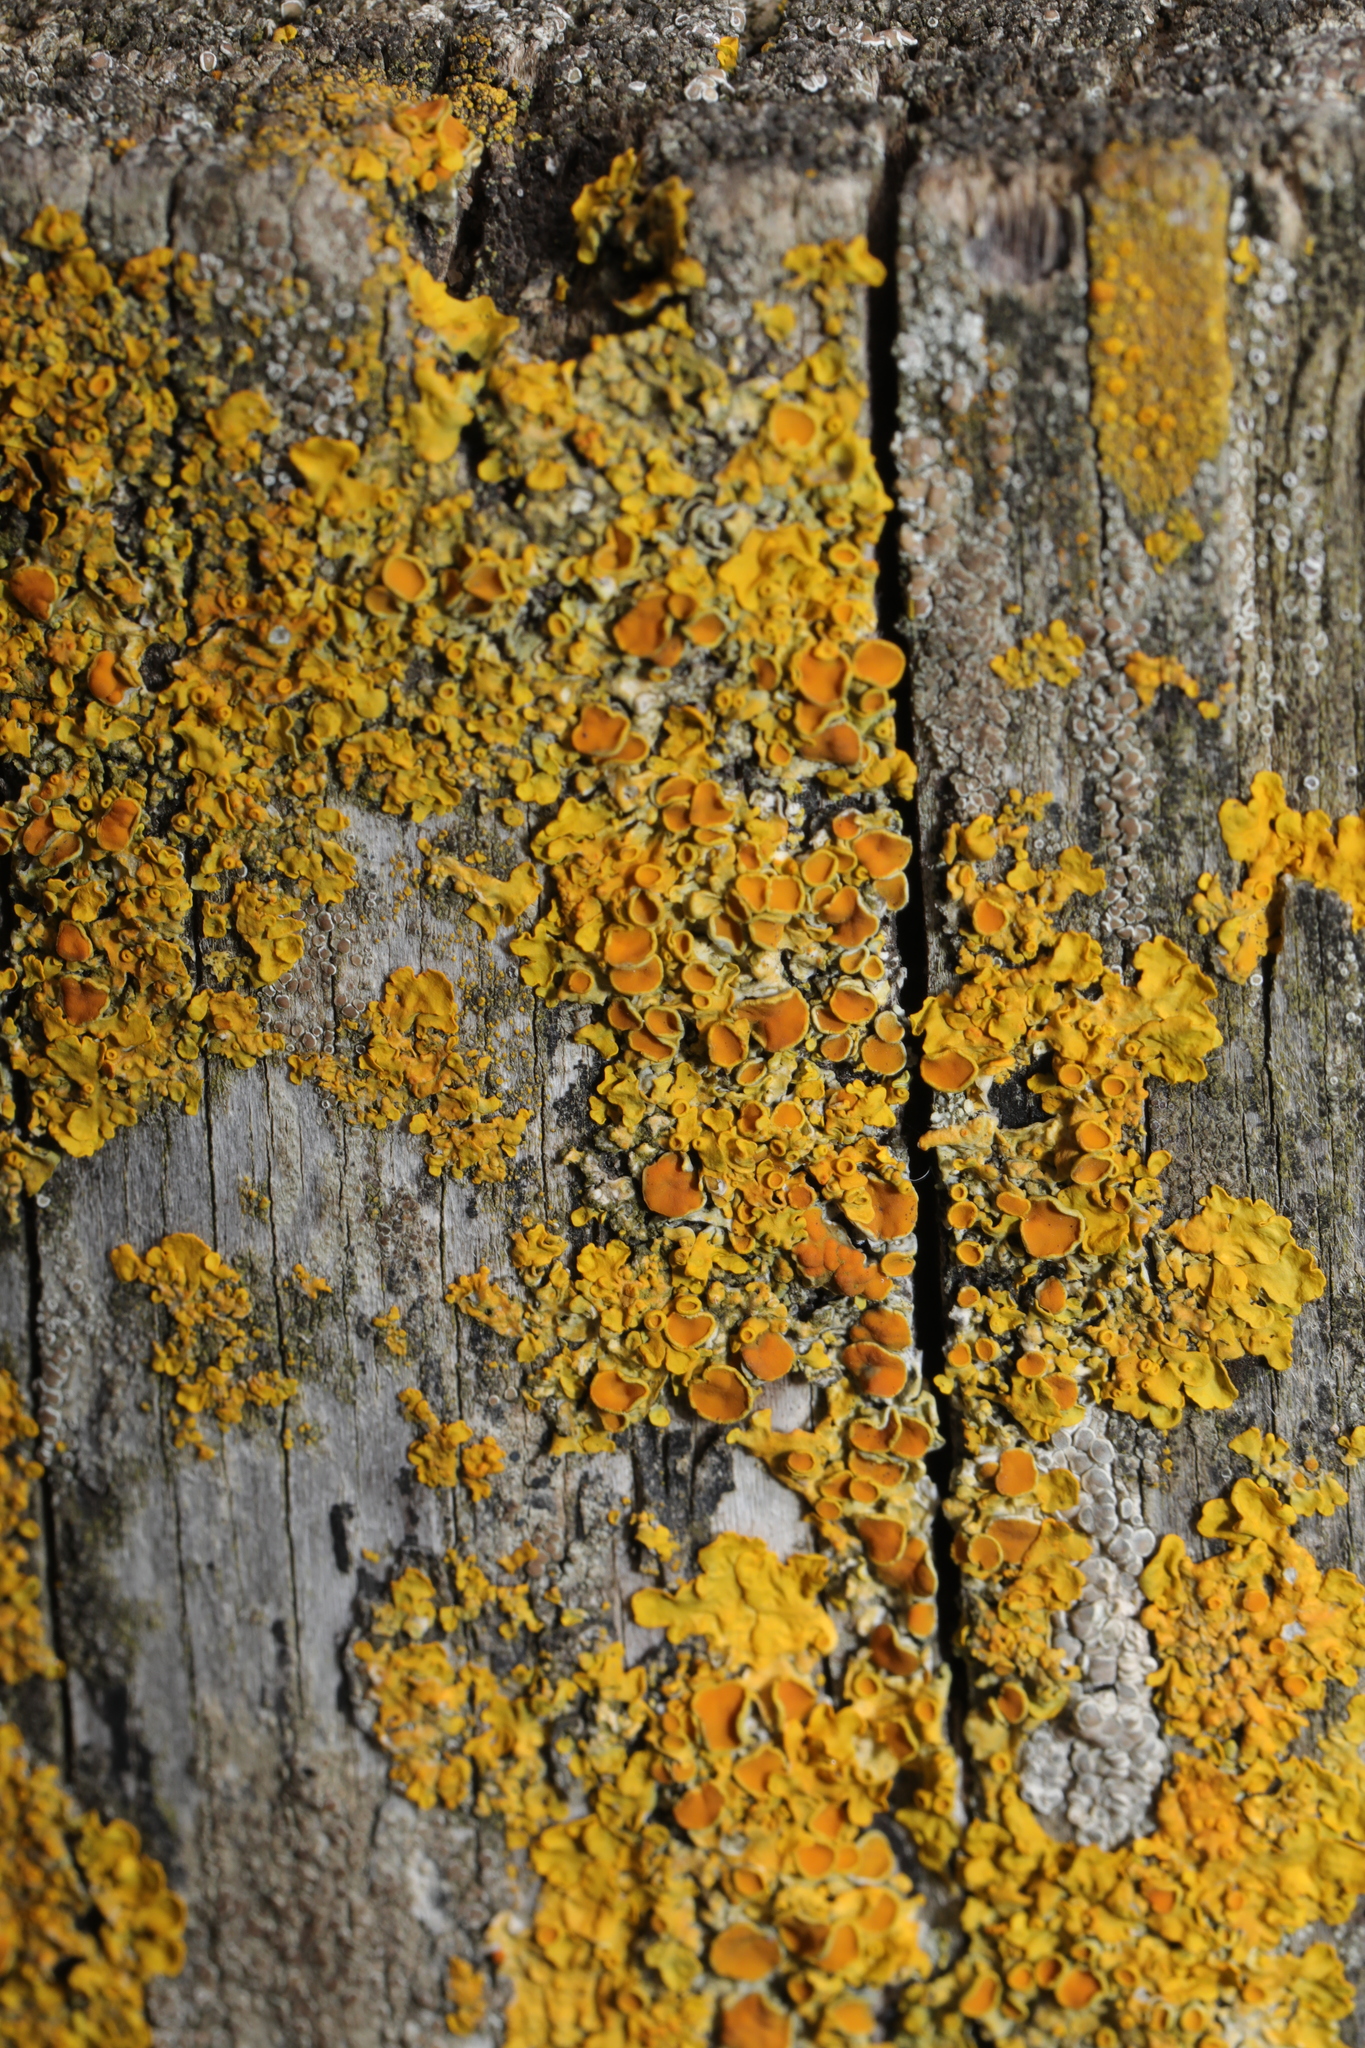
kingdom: Fungi
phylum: Ascomycota
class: Lecanoromycetes
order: Teloschistales
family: Teloschistaceae
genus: Xanthoria
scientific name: Xanthoria parietina
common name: Common orange lichen
